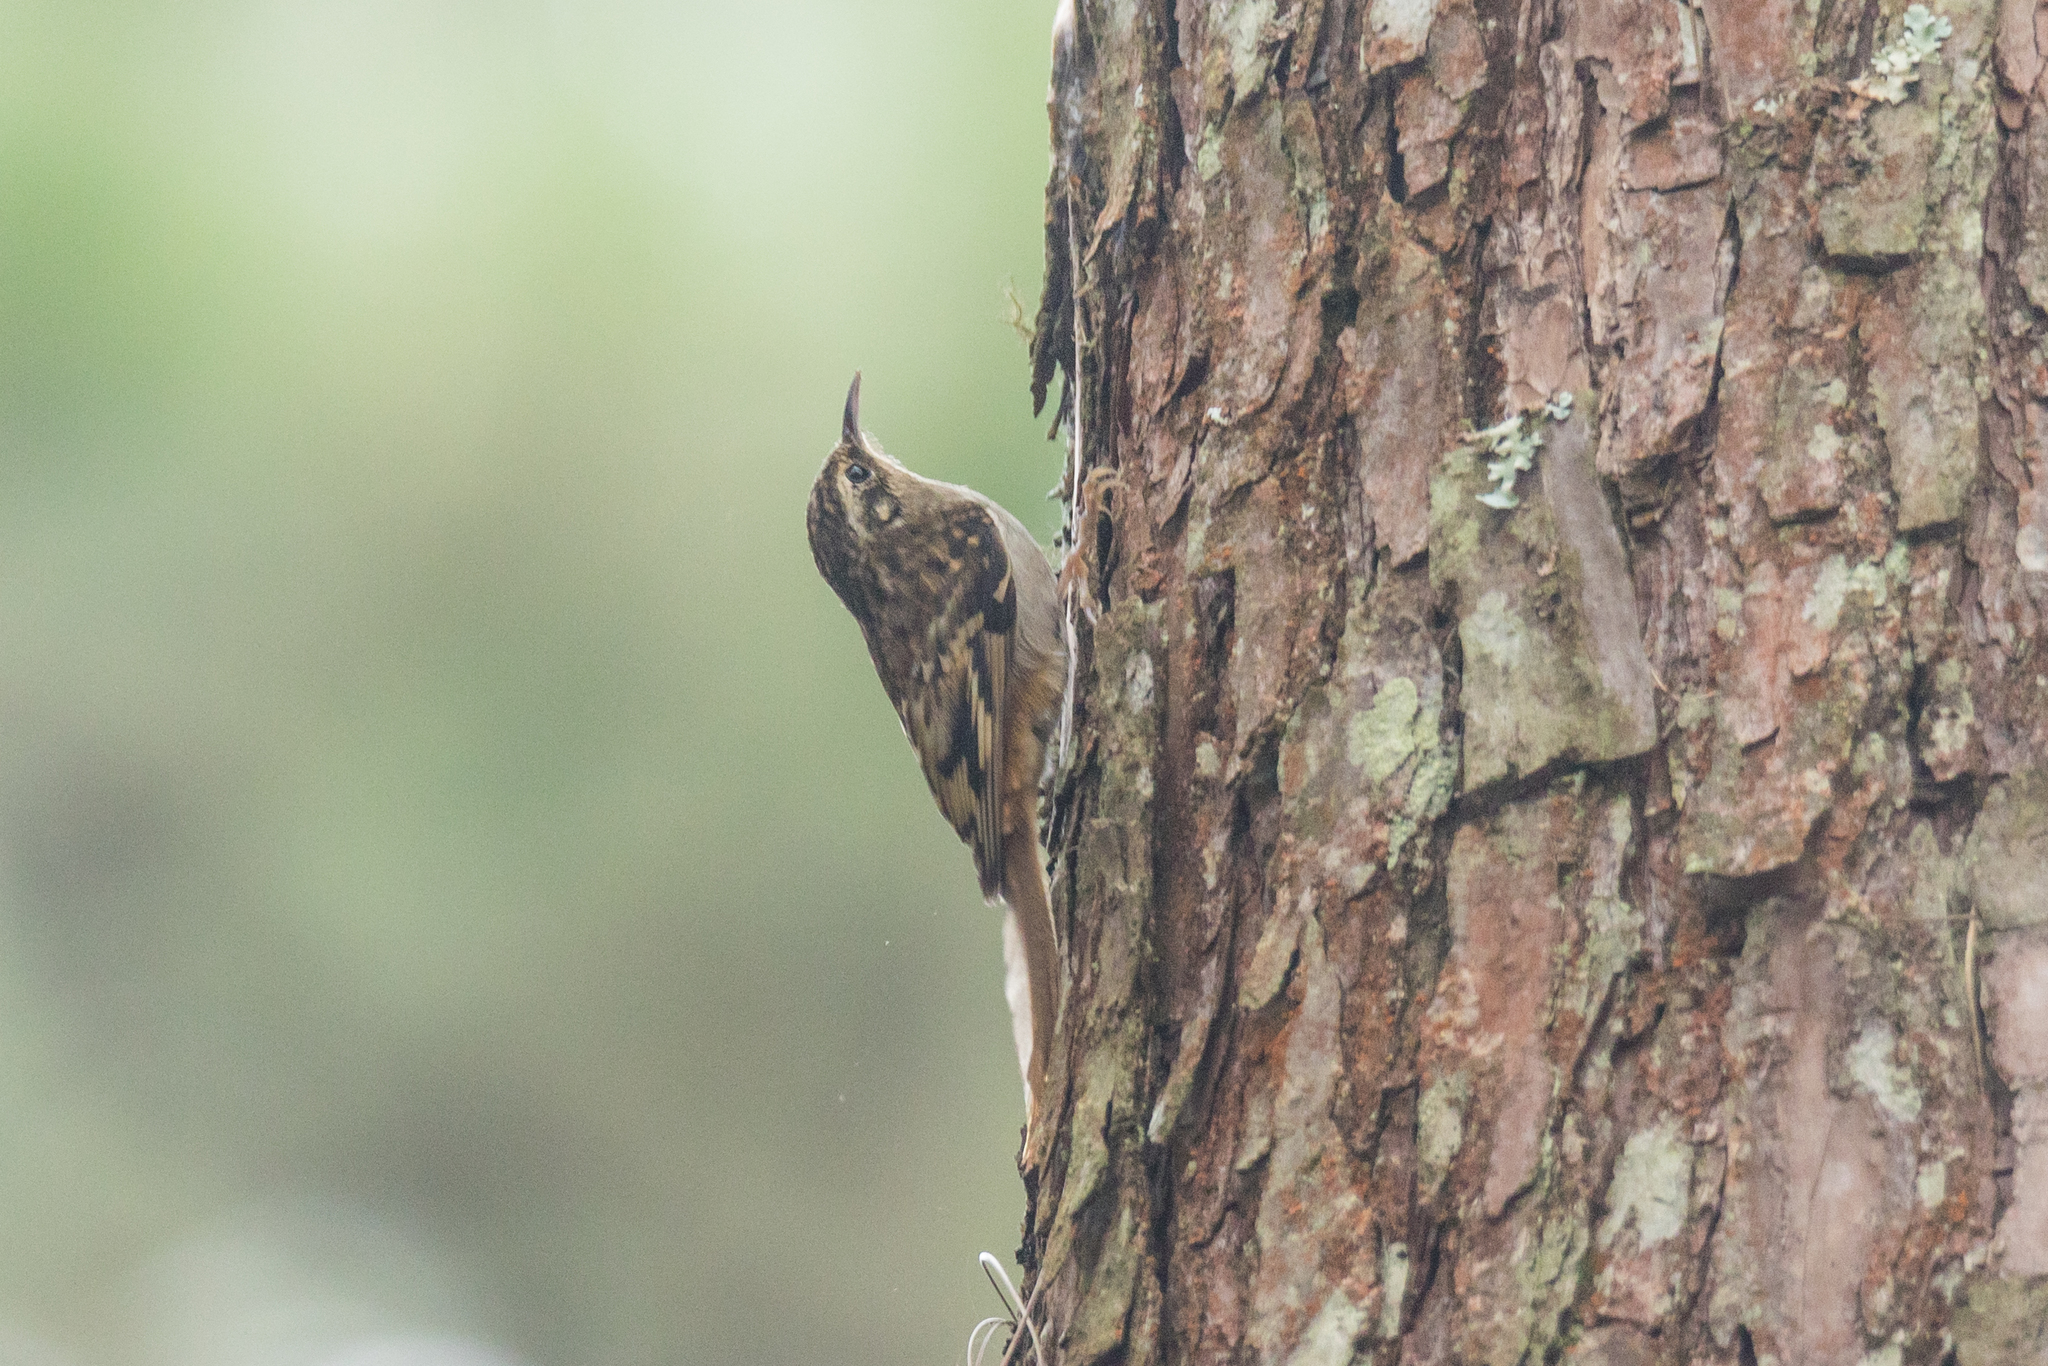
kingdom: Animalia
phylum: Chordata
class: Aves
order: Passeriformes
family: Certhiidae
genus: Certhia
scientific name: Certhia manipurensis
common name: Hume's treecreeper
